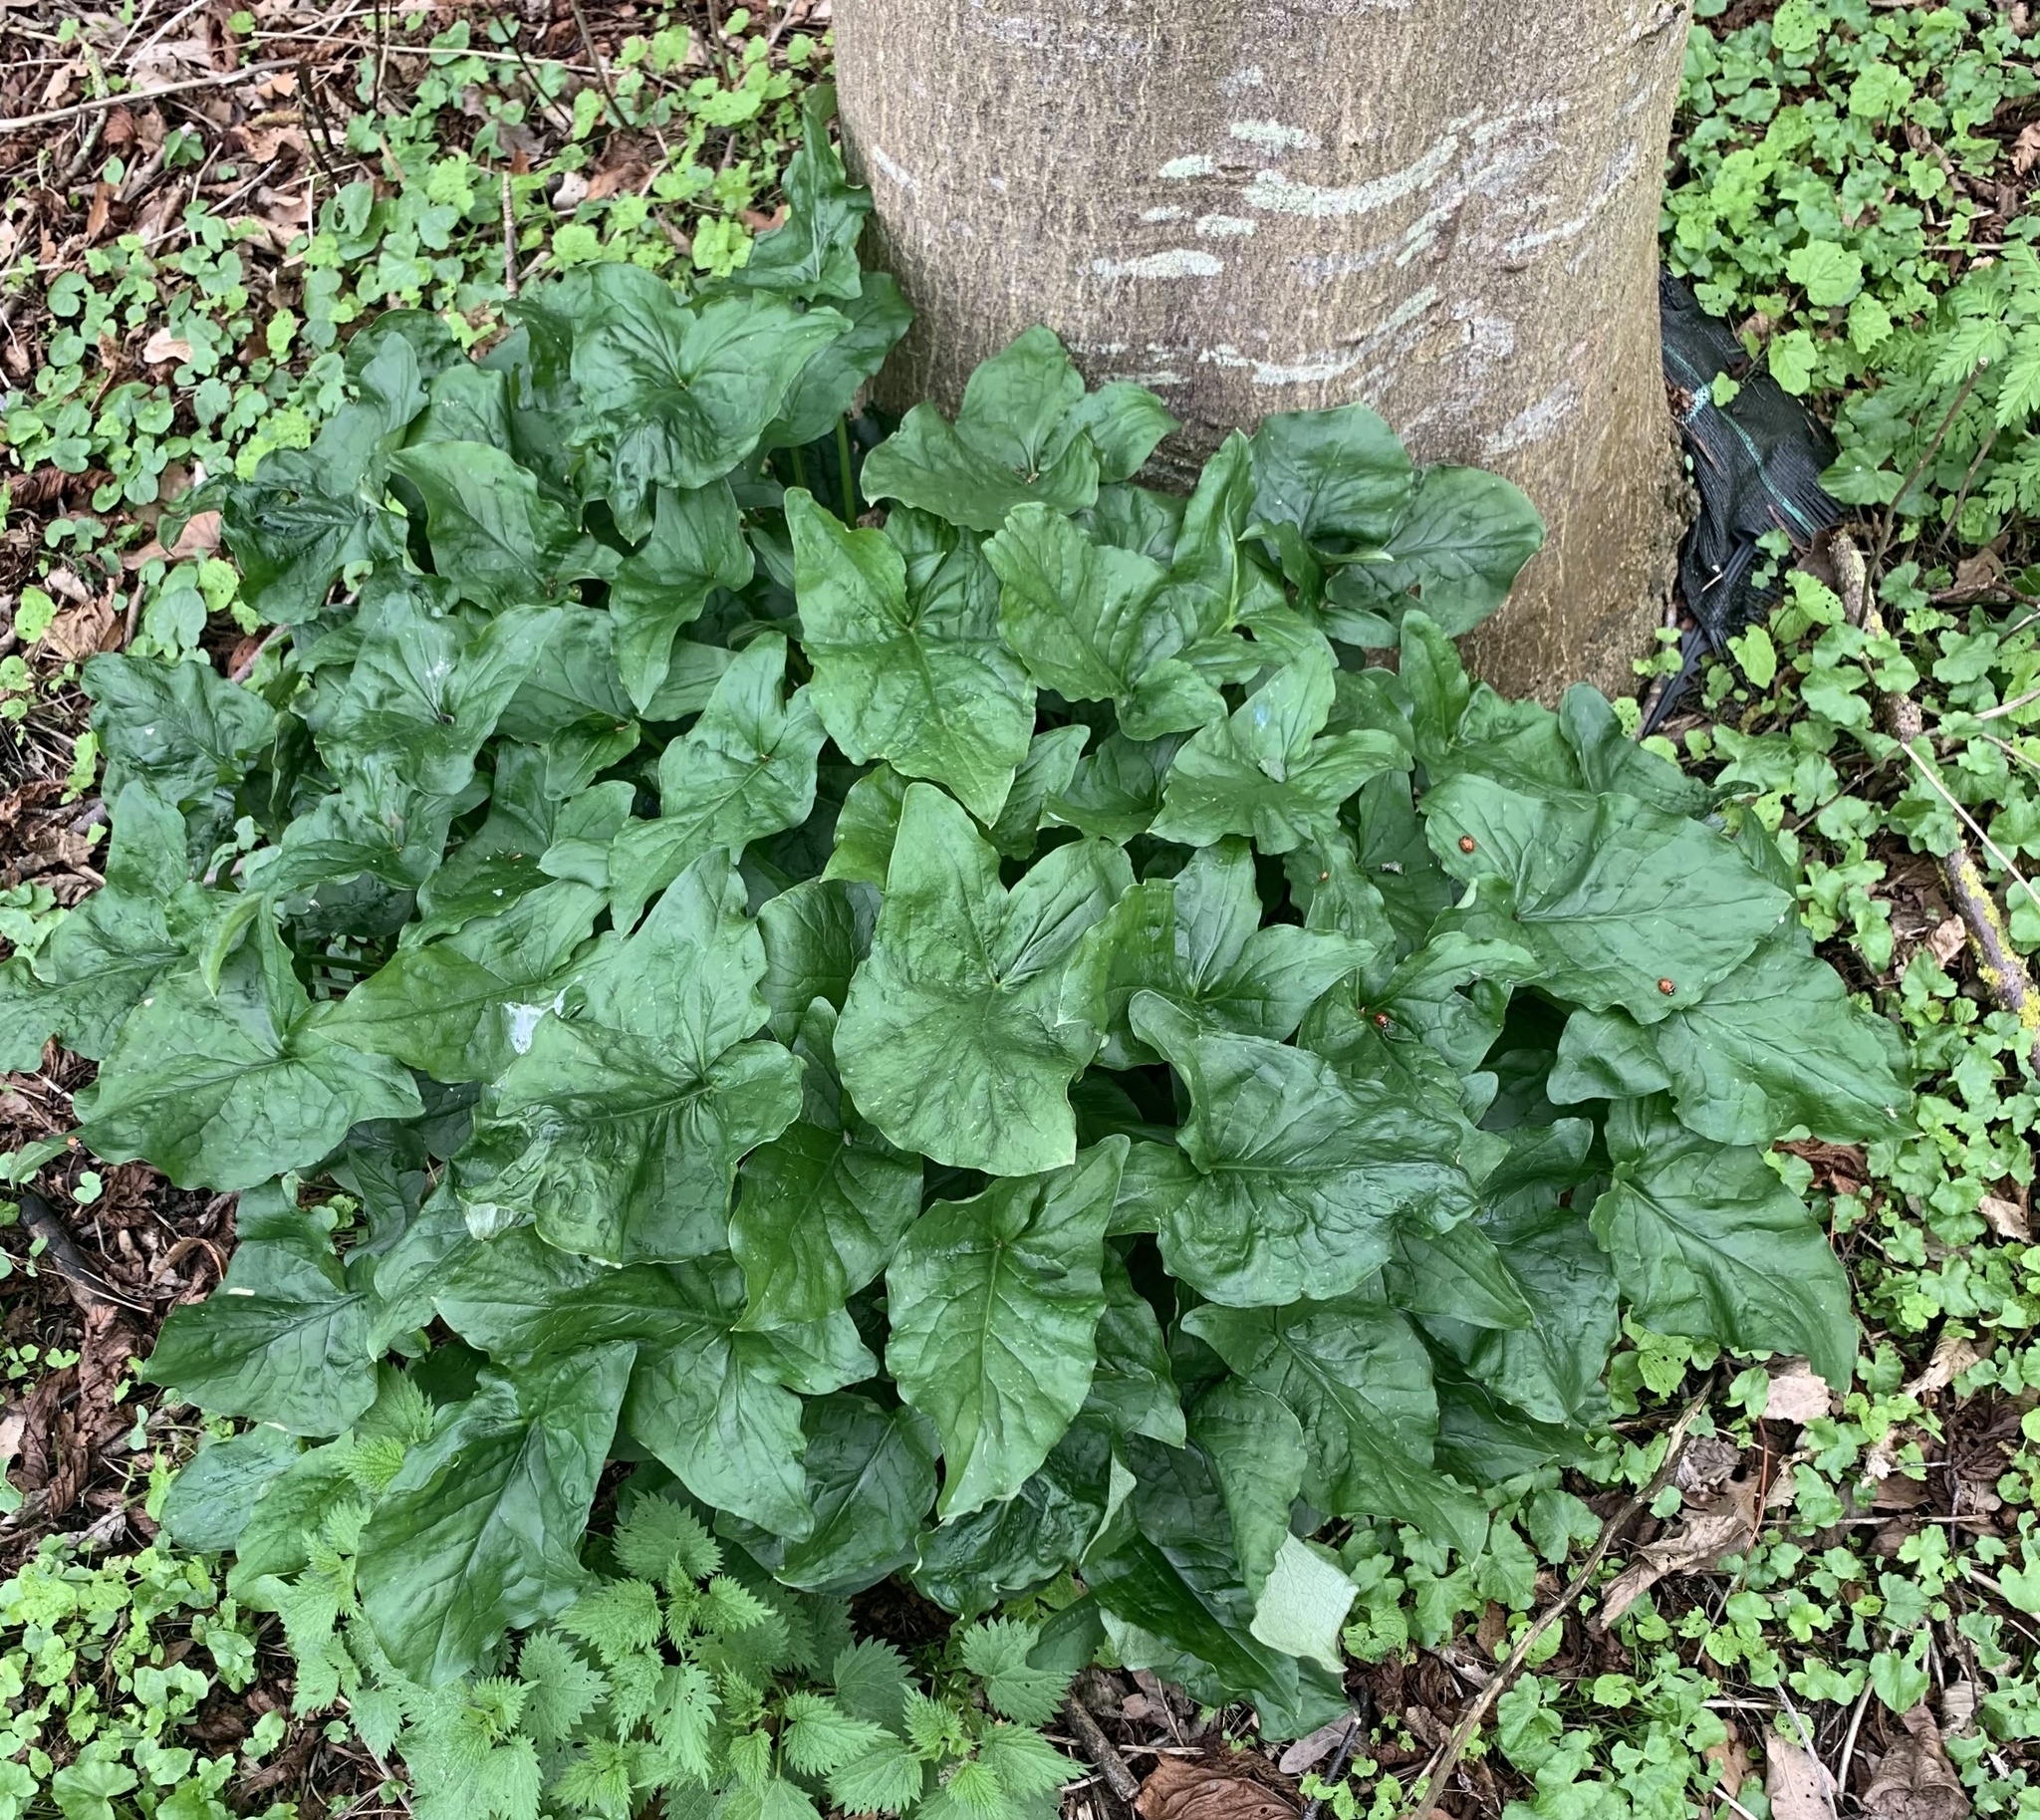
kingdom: Plantae
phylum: Tracheophyta
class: Liliopsida
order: Alismatales
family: Araceae
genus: Arum
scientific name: Arum maculatum
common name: Lords-and-ladies
